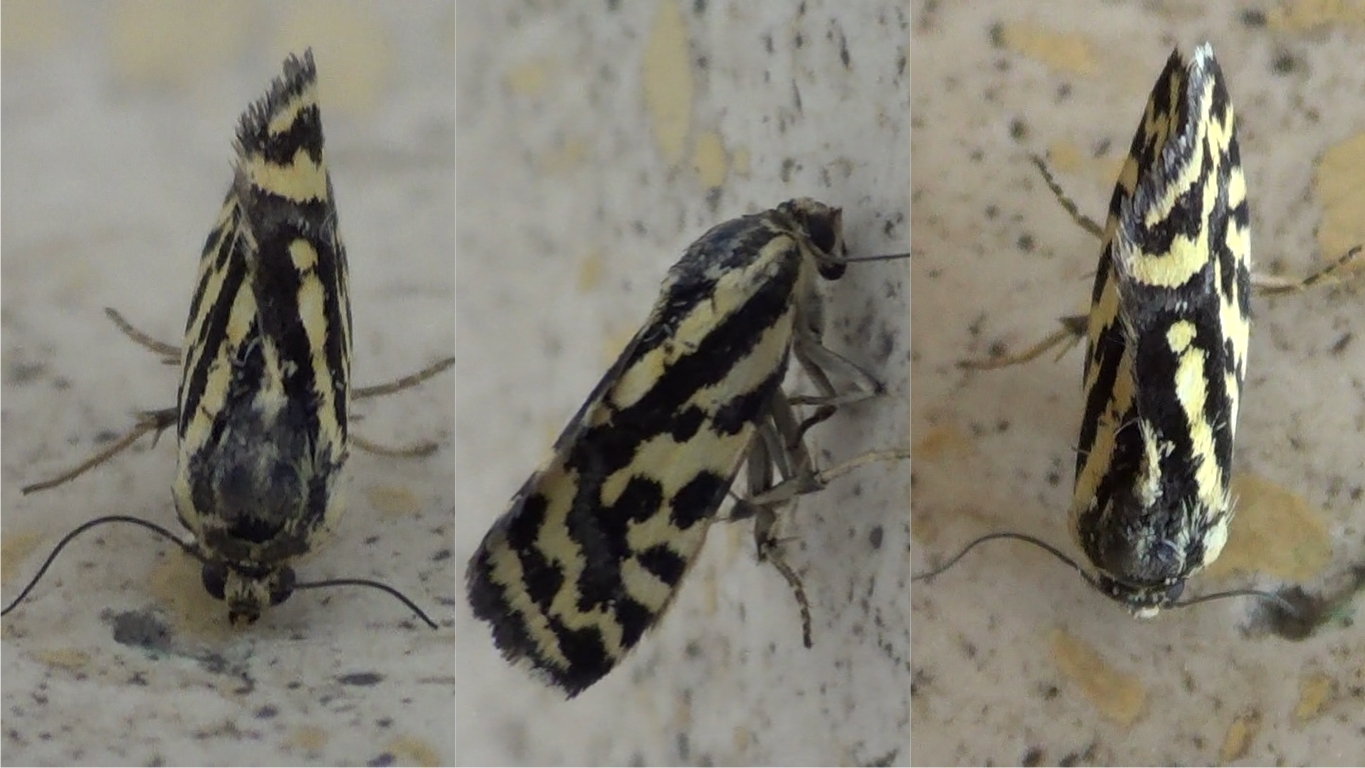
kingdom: Animalia
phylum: Arthropoda
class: Insecta
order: Lepidoptera
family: Noctuidae
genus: Acontia
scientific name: Acontia trabealis
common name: Spotted sulphur
